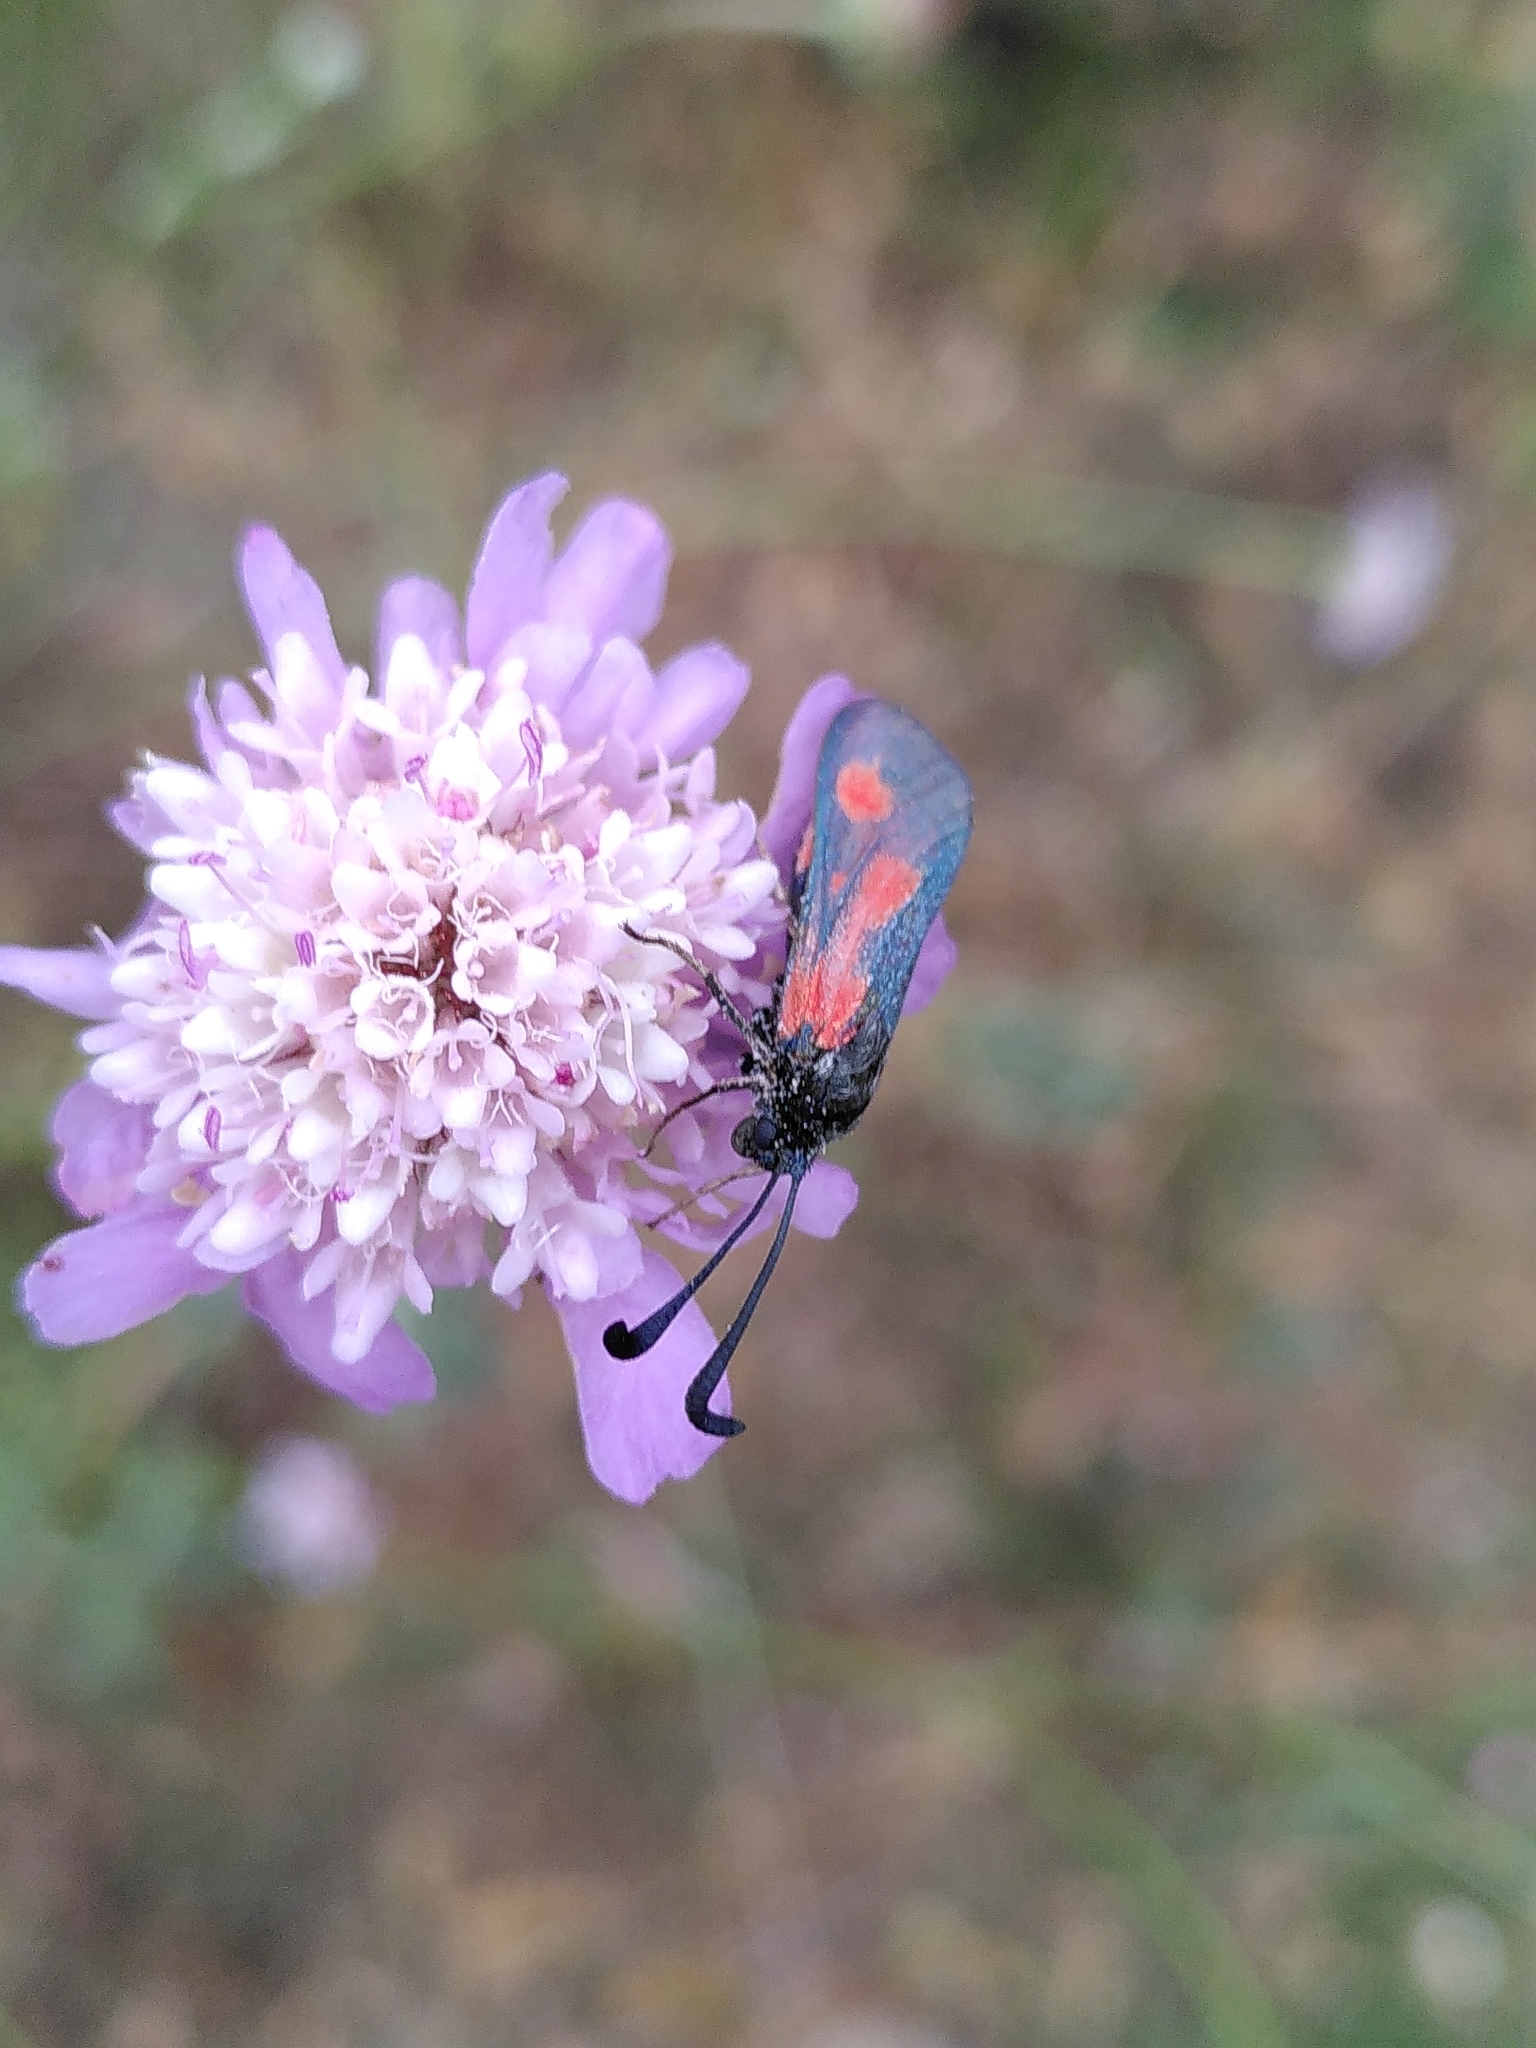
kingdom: Animalia
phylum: Arthropoda
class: Insecta
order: Lepidoptera
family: Zygaenidae
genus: Zygaena
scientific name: Zygaena sarpedon
